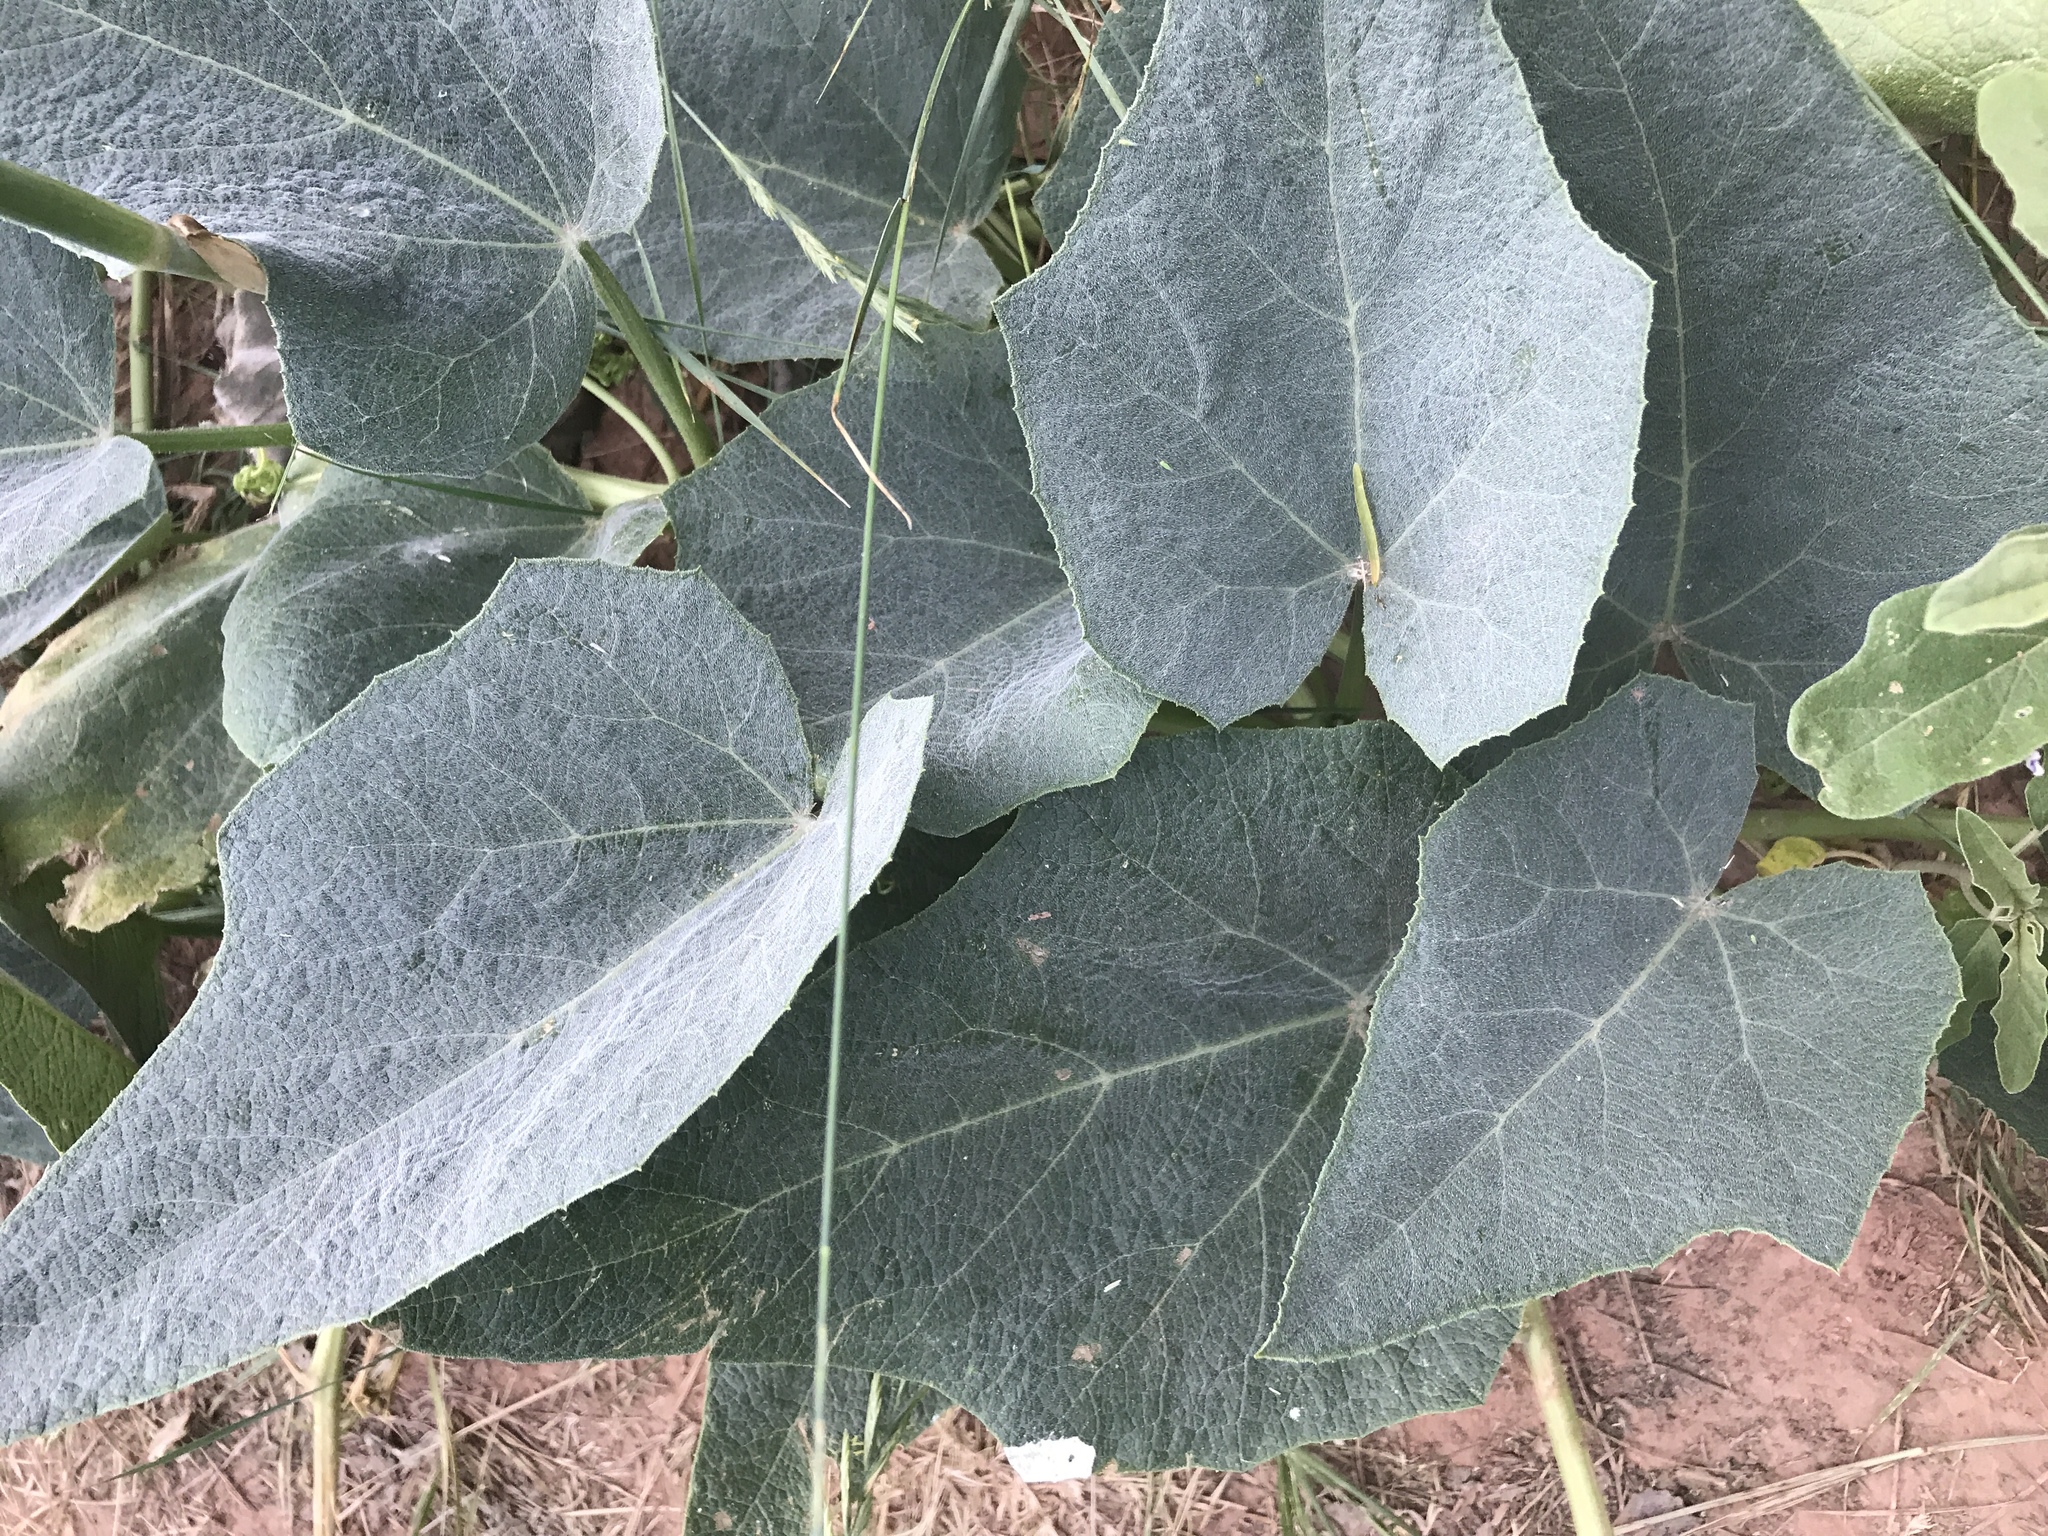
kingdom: Plantae
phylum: Tracheophyta
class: Magnoliopsida
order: Cucurbitales
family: Cucurbitaceae
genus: Cucurbita
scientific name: Cucurbita foetidissima
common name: Buffalo gourd
